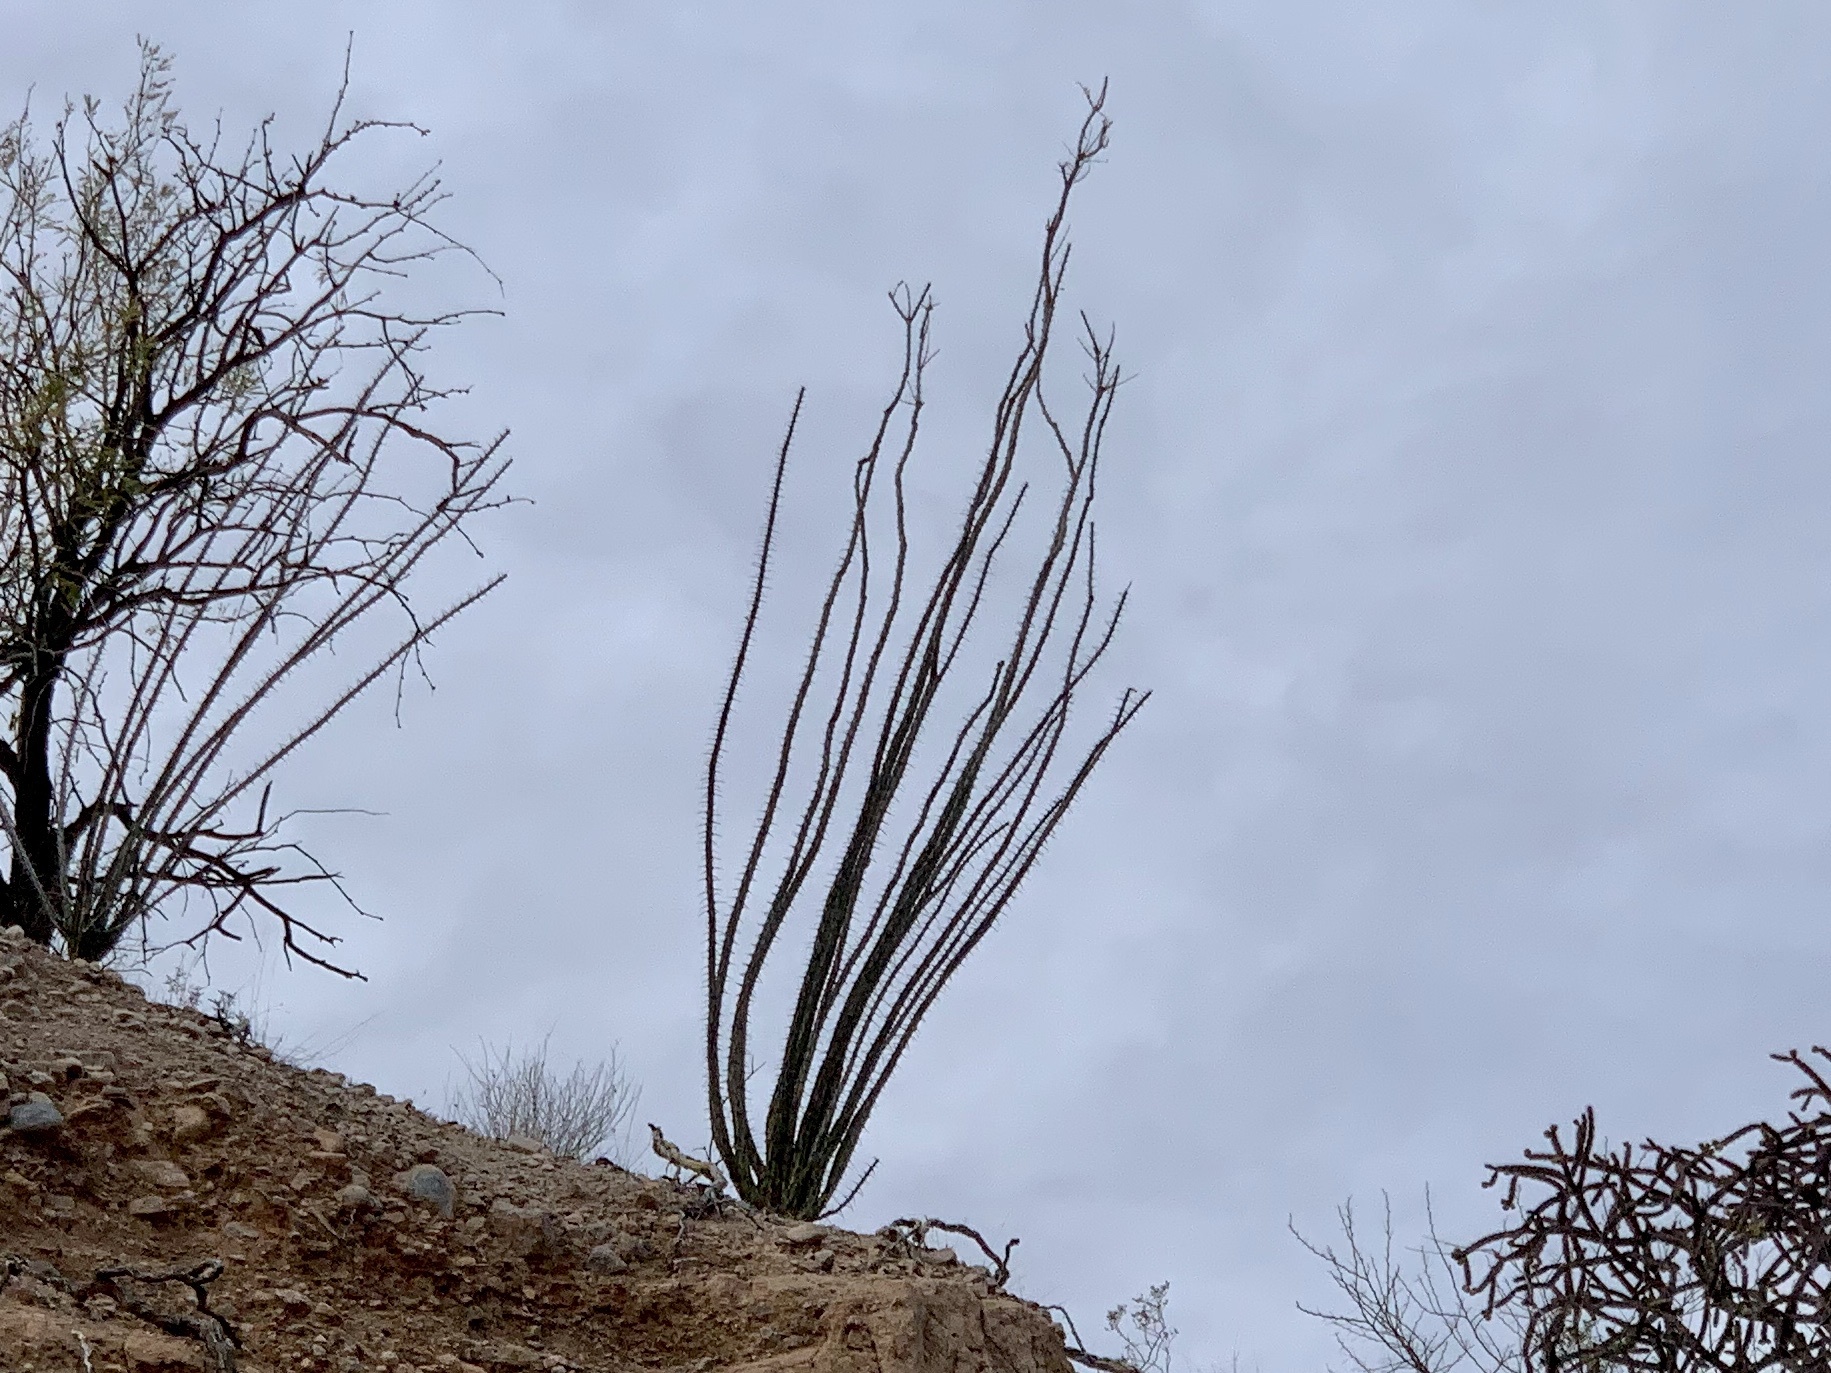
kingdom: Plantae
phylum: Tracheophyta
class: Magnoliopsida
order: Ericales
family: Fouquieriaceae
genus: Fouquieria
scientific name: Fouquieria splendens
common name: Vine-cactus
